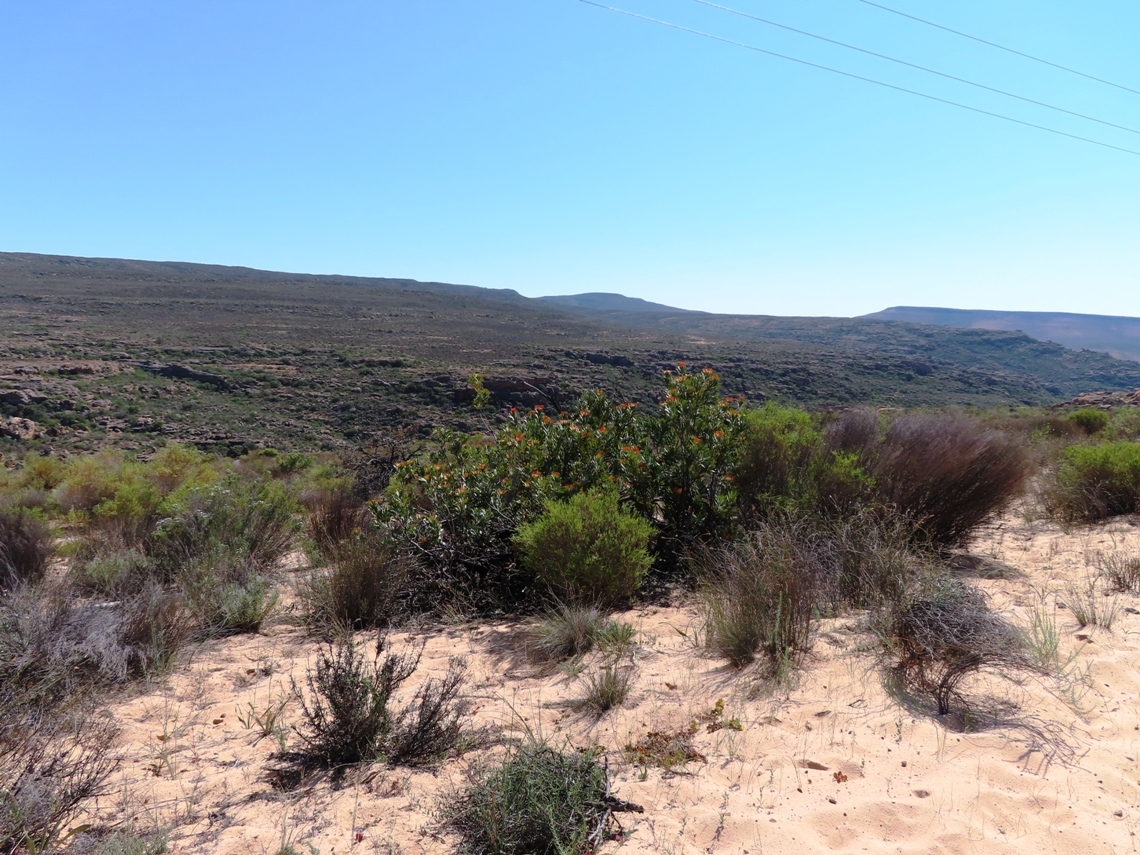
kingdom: Plantae
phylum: Tracheophyta
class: Magnoliopsida
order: Proteales
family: Proteaceae
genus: Leucospermum
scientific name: Leucospermum praemorsum
